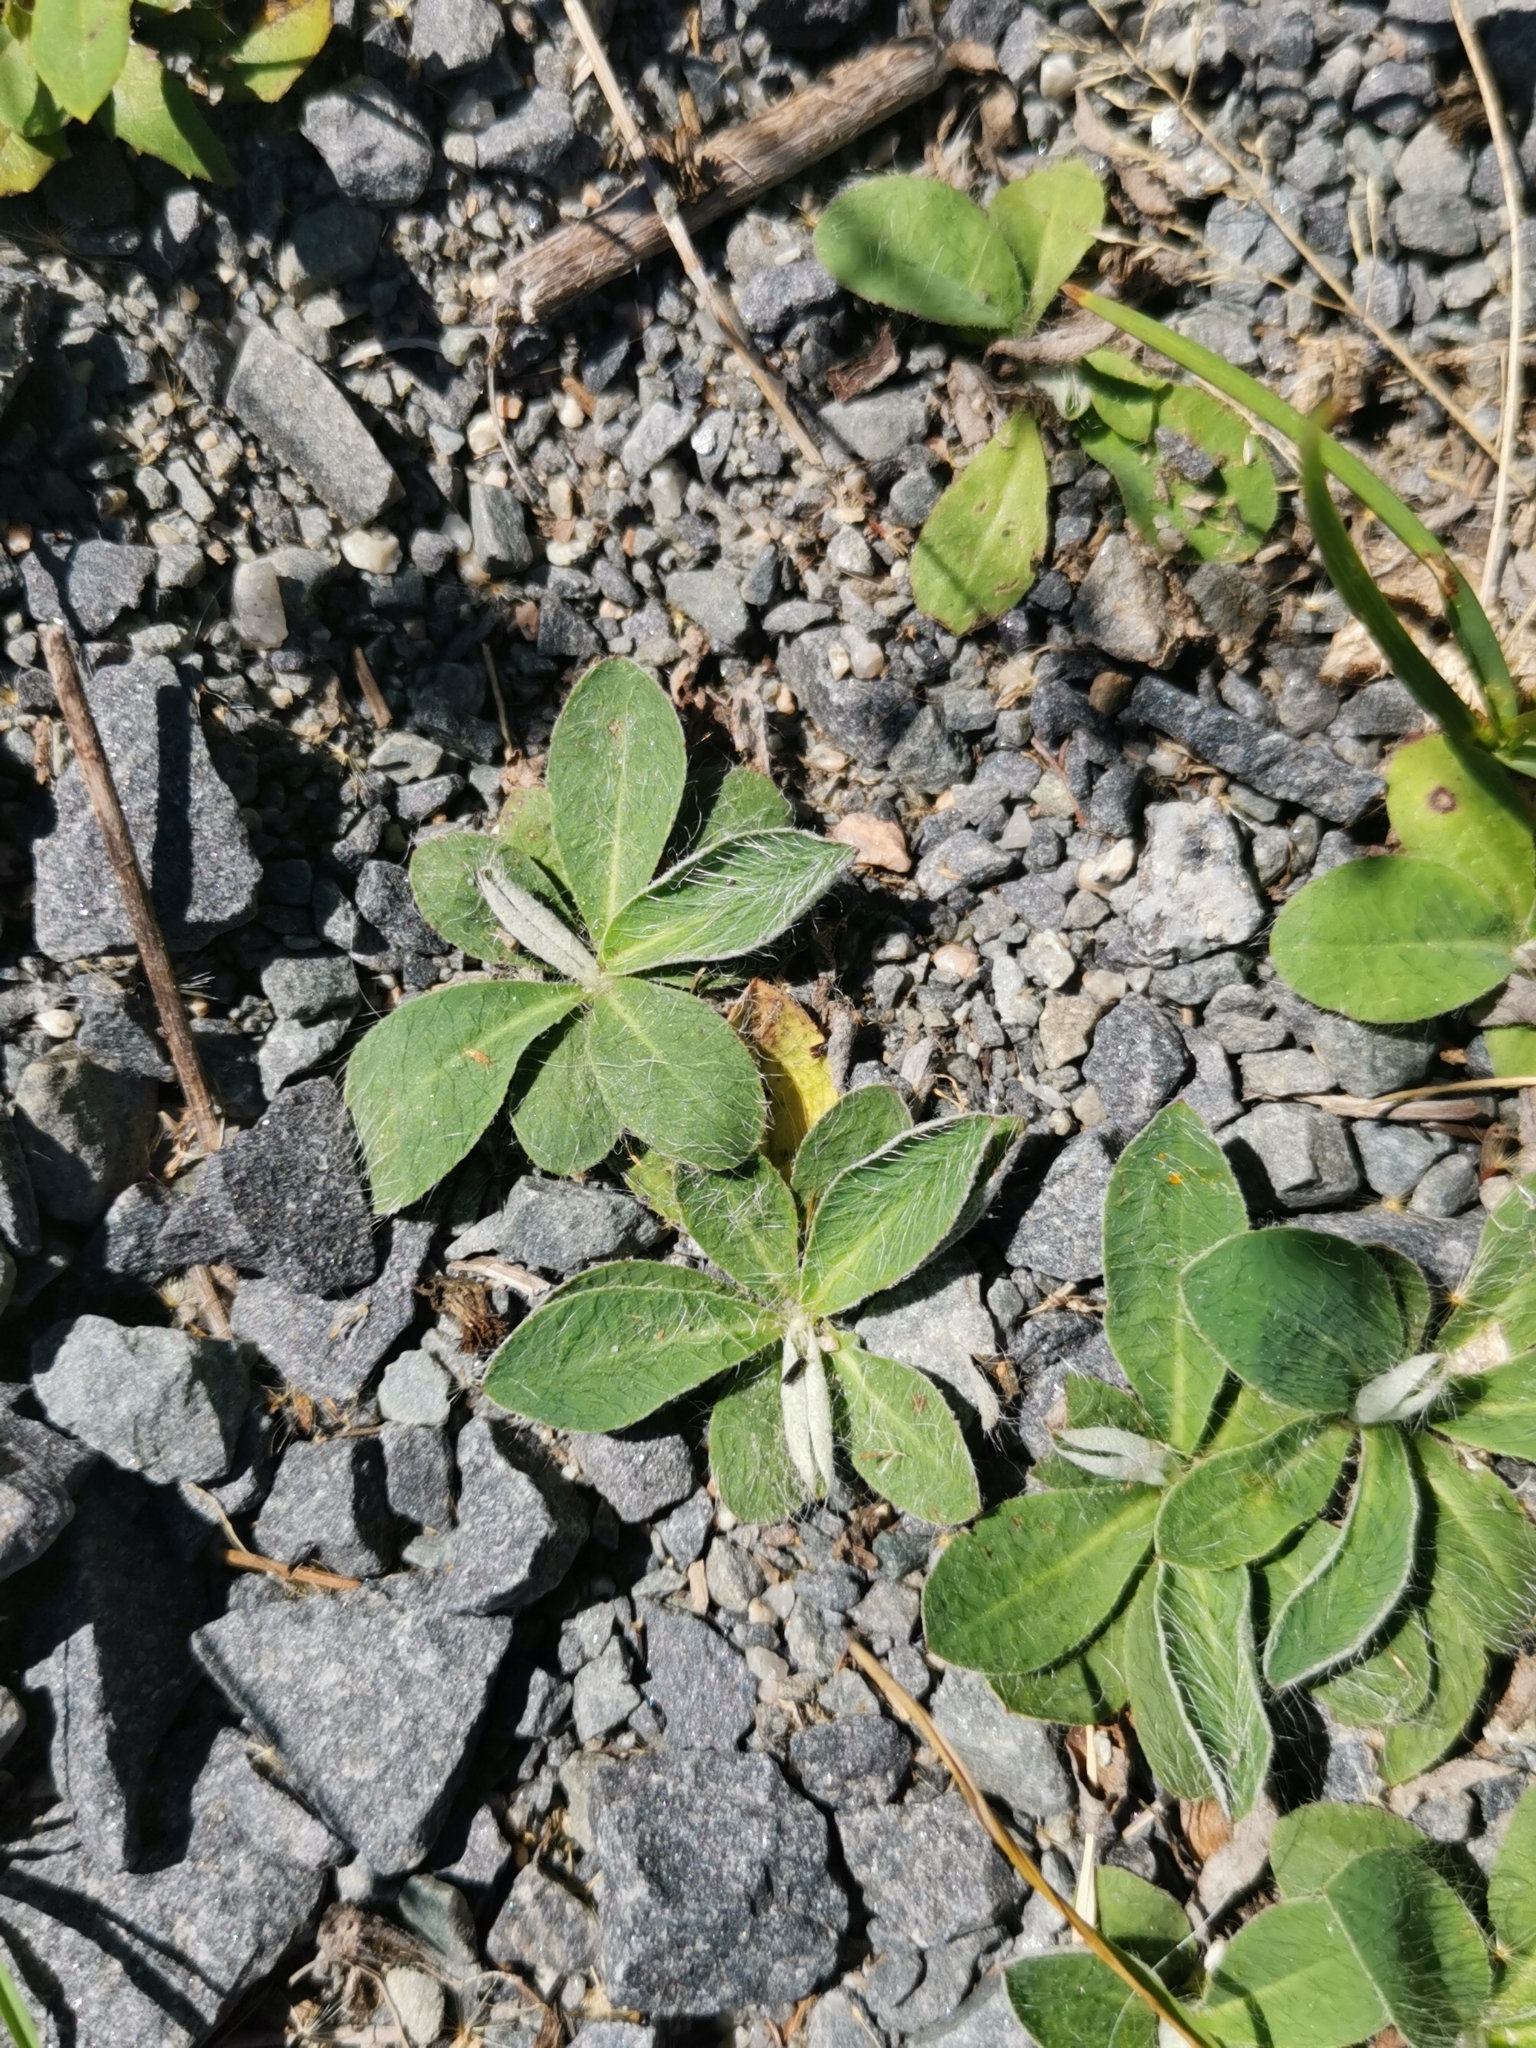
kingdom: Plantae
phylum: Tracheophyta
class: Magnoliopsida
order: Asterales
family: Asteraceae
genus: Pilosella
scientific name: Pilosella officinarum
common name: Mouse-ear hawkweed
